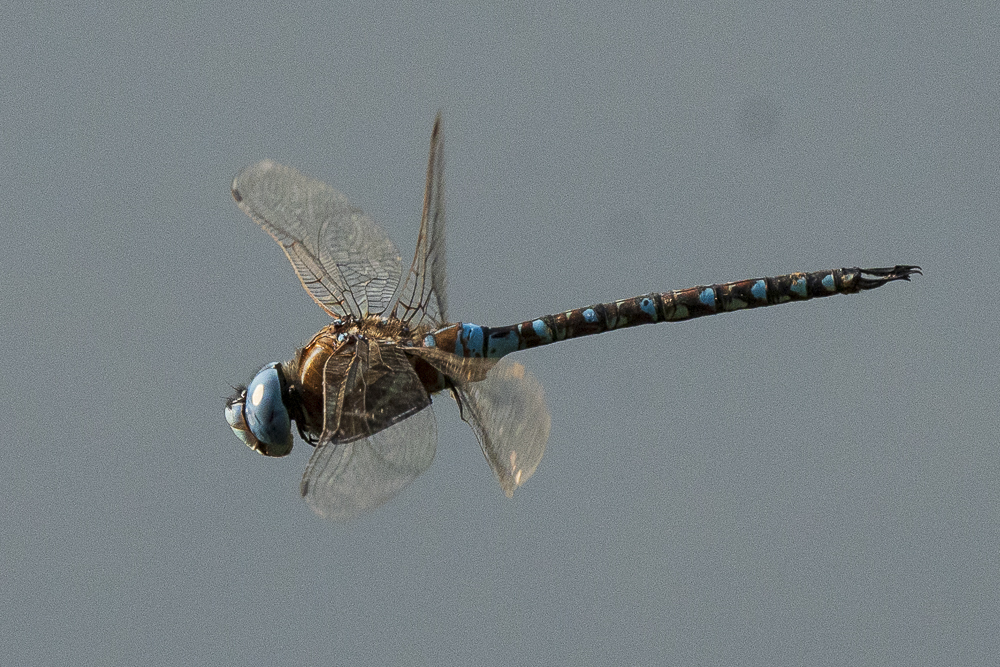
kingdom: Animalia
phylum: Arthropoda
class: Insecta
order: Odonata
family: Aeshnidae
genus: Rhionaeschna
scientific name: Rhionaeschna multicolor
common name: Blue-eyed darner
